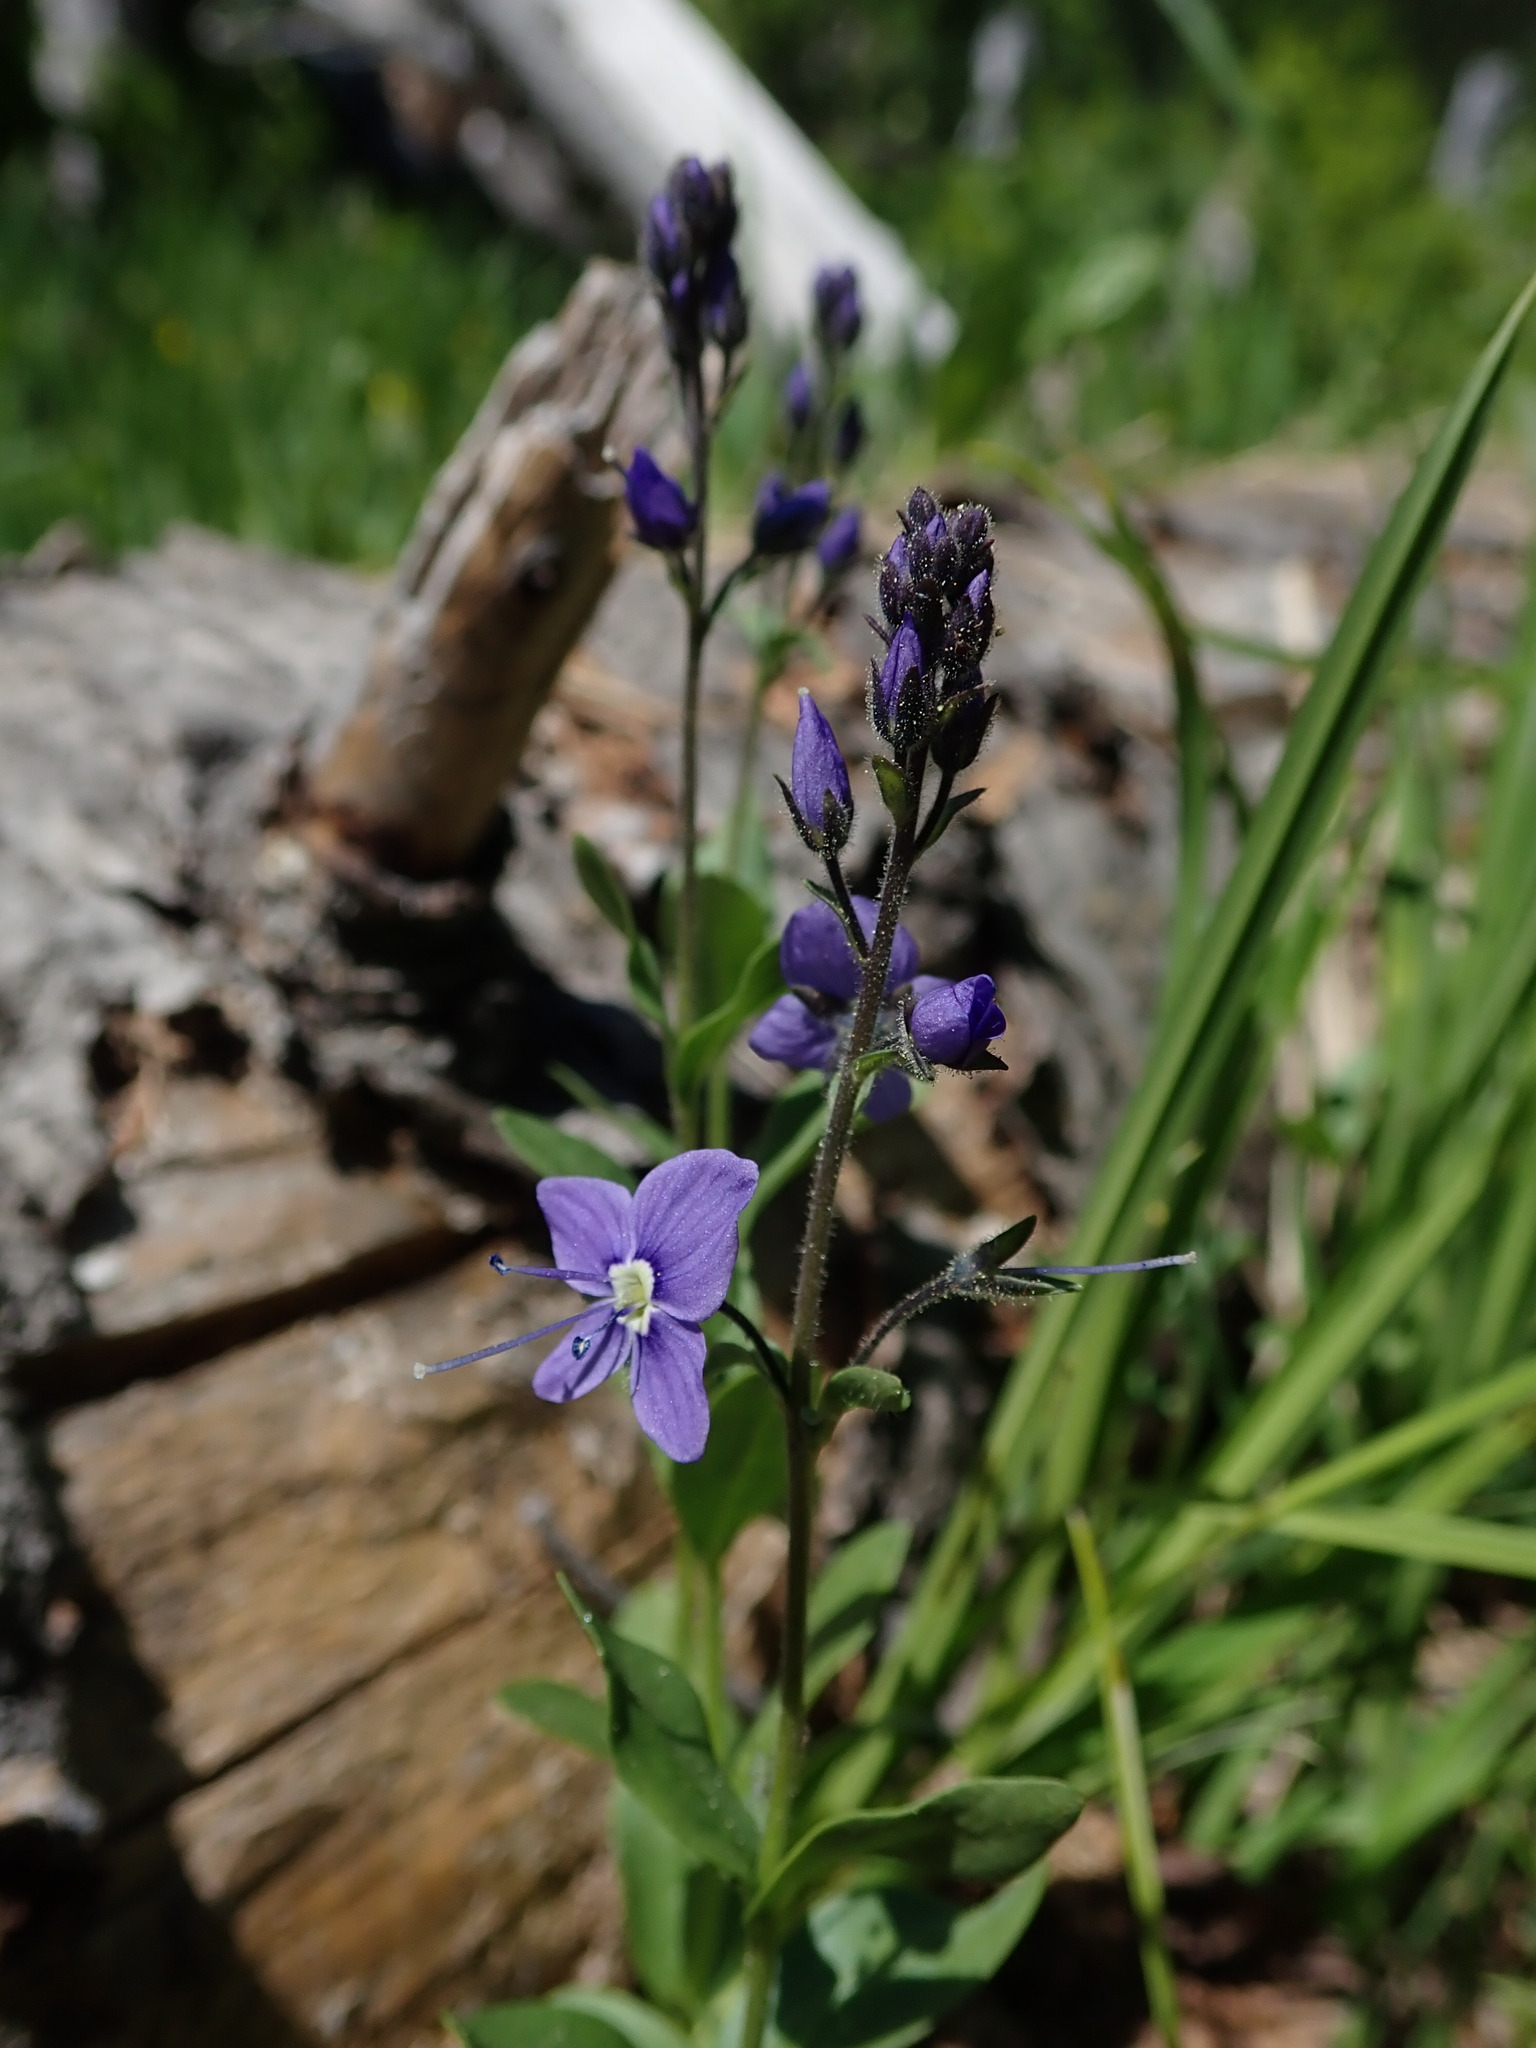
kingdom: Plantae
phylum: Tracheophyta
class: Magnoliopsida
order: Lamiales
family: Plantaginaceae
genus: Veronica
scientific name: Veronica cusickii
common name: Cusick's speedwell
